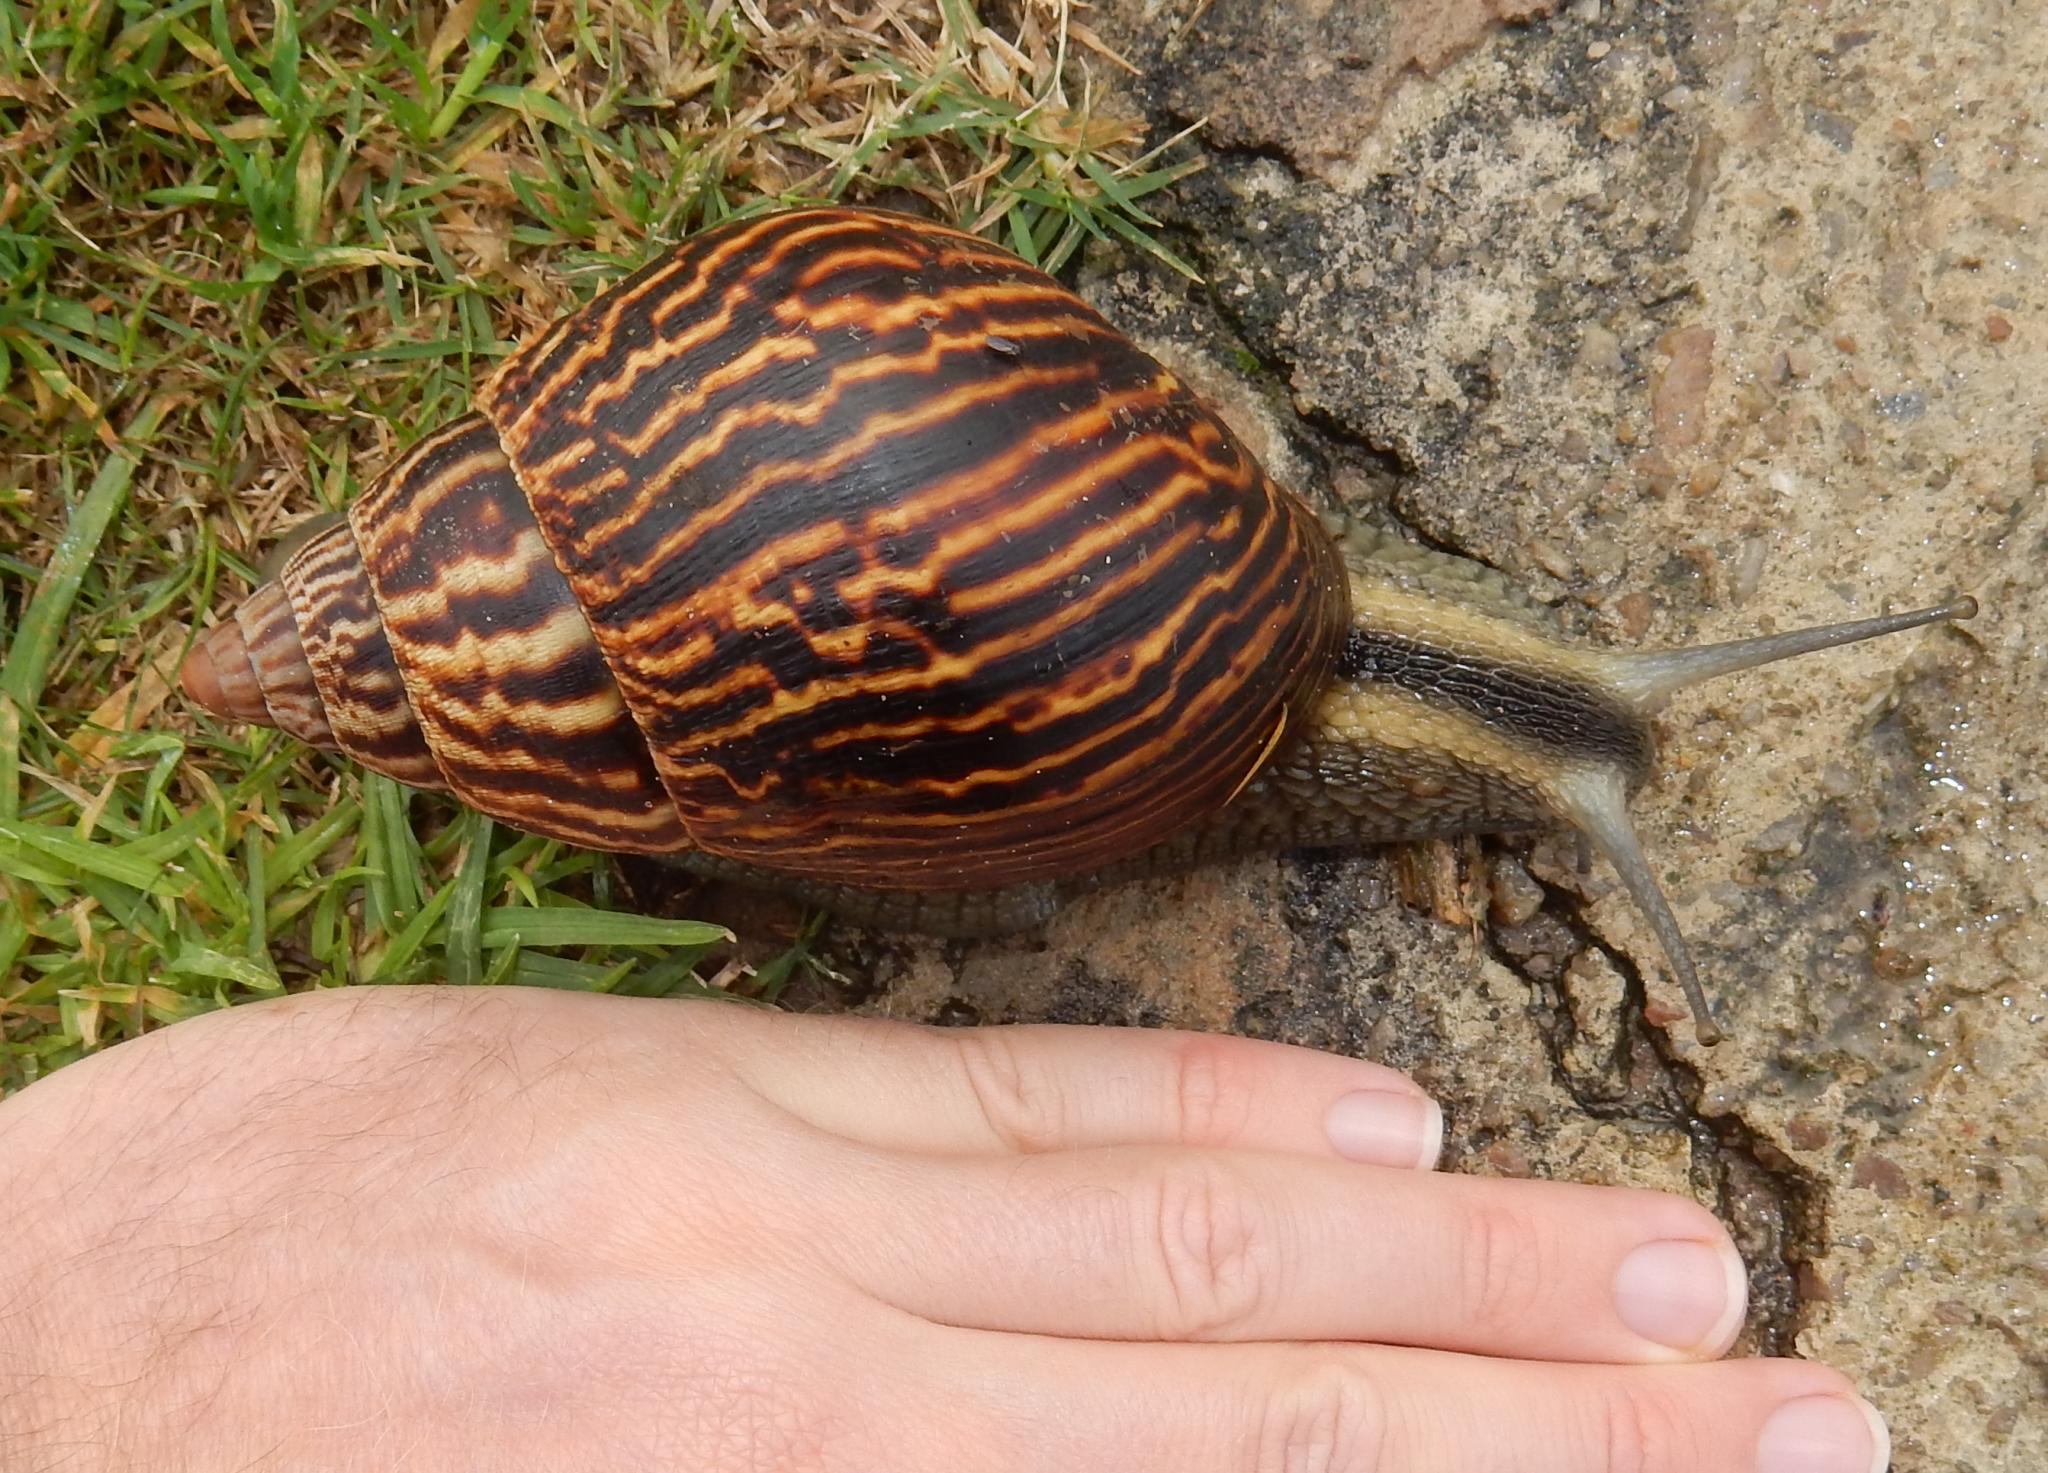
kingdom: Animalia
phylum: Mollusca
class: Gastropoda
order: Stylommatophora
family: Achatinidae
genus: Cochlitoma
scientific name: Cochlitoma zebra
